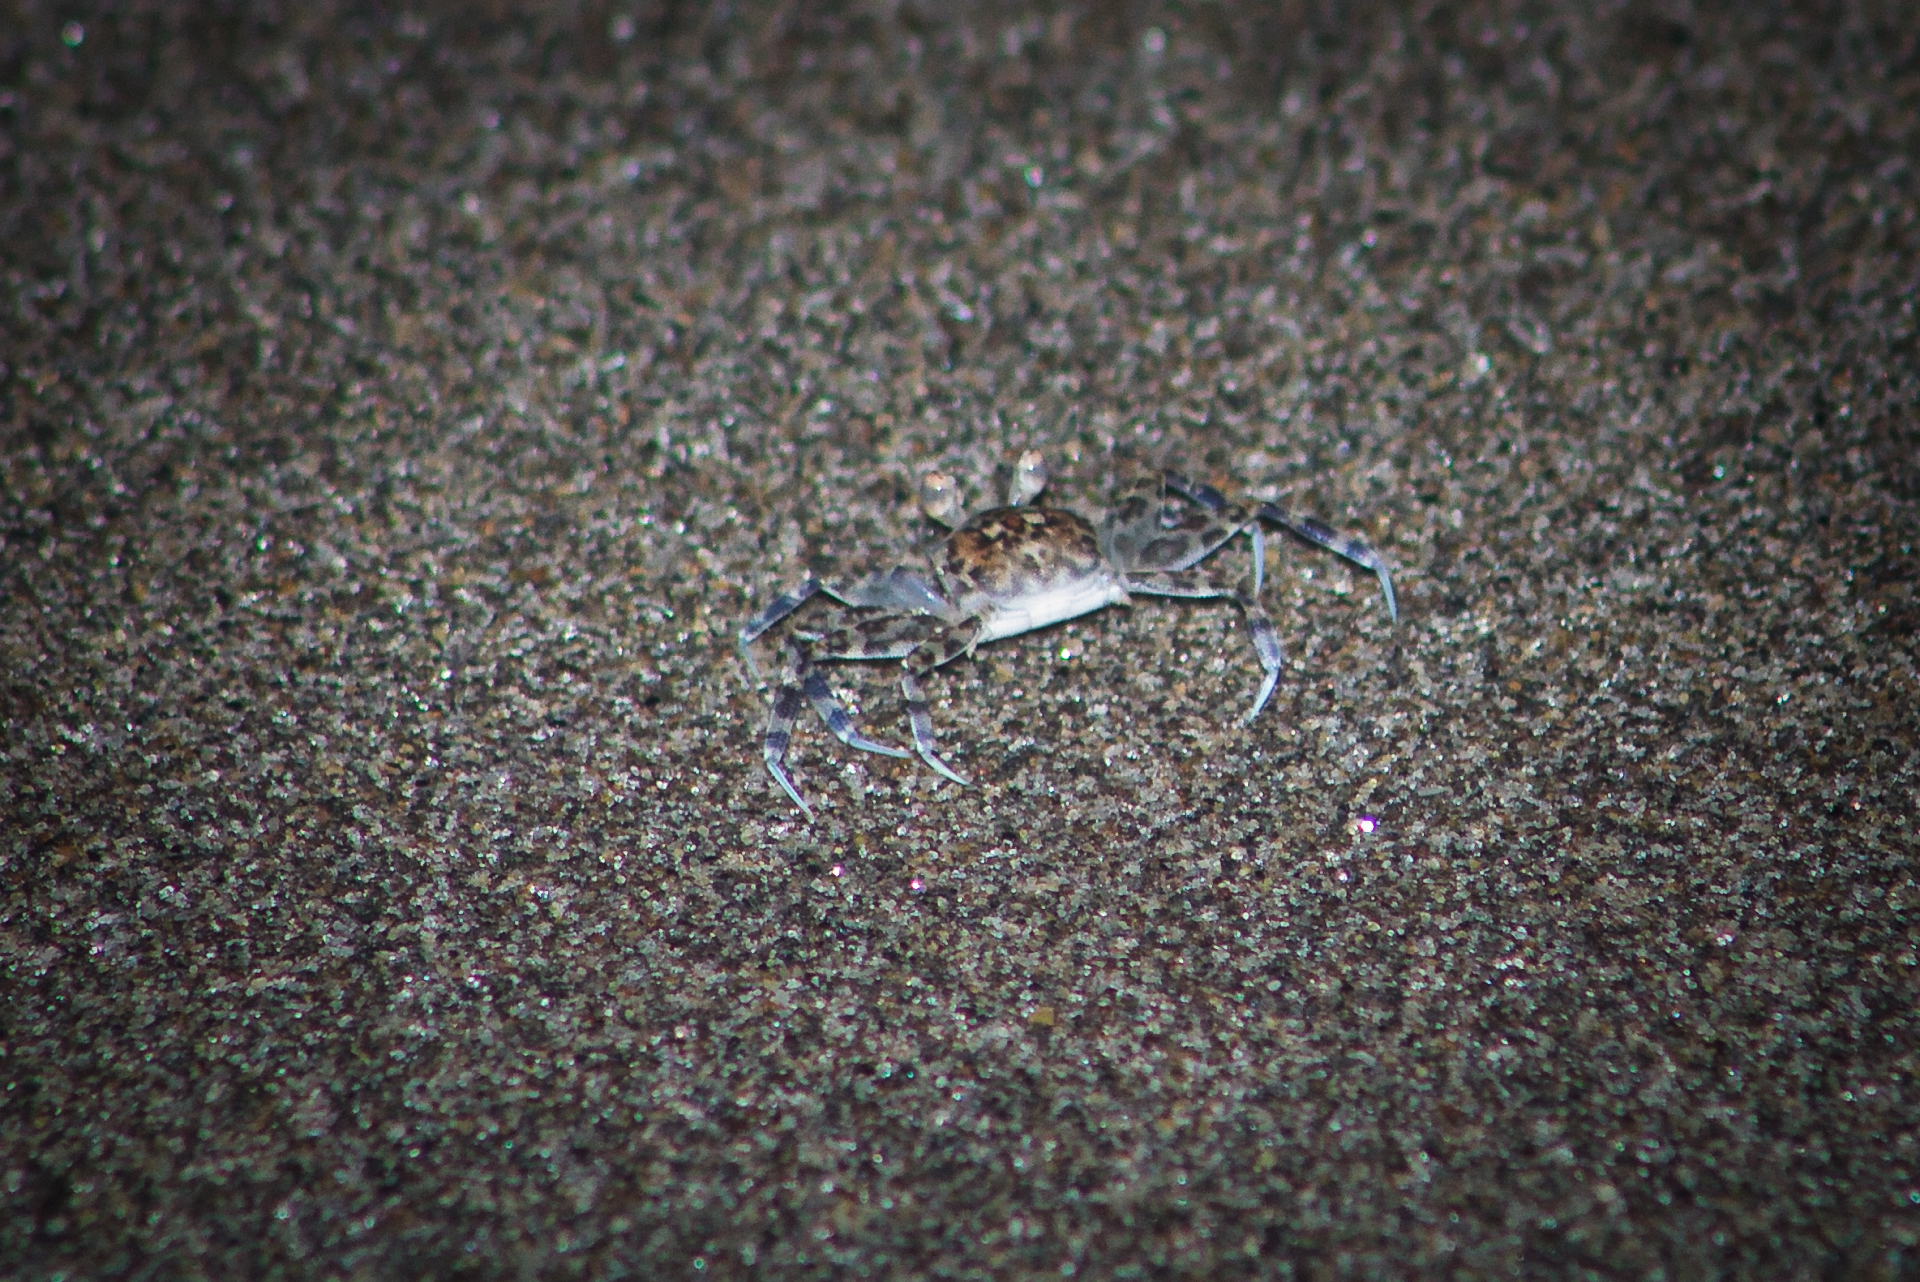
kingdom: Animalia
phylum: Arthropoda
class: Malacostraca
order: Decapoda
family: Ocypodidae
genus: Ocypode
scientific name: Ocypode occidentalis
